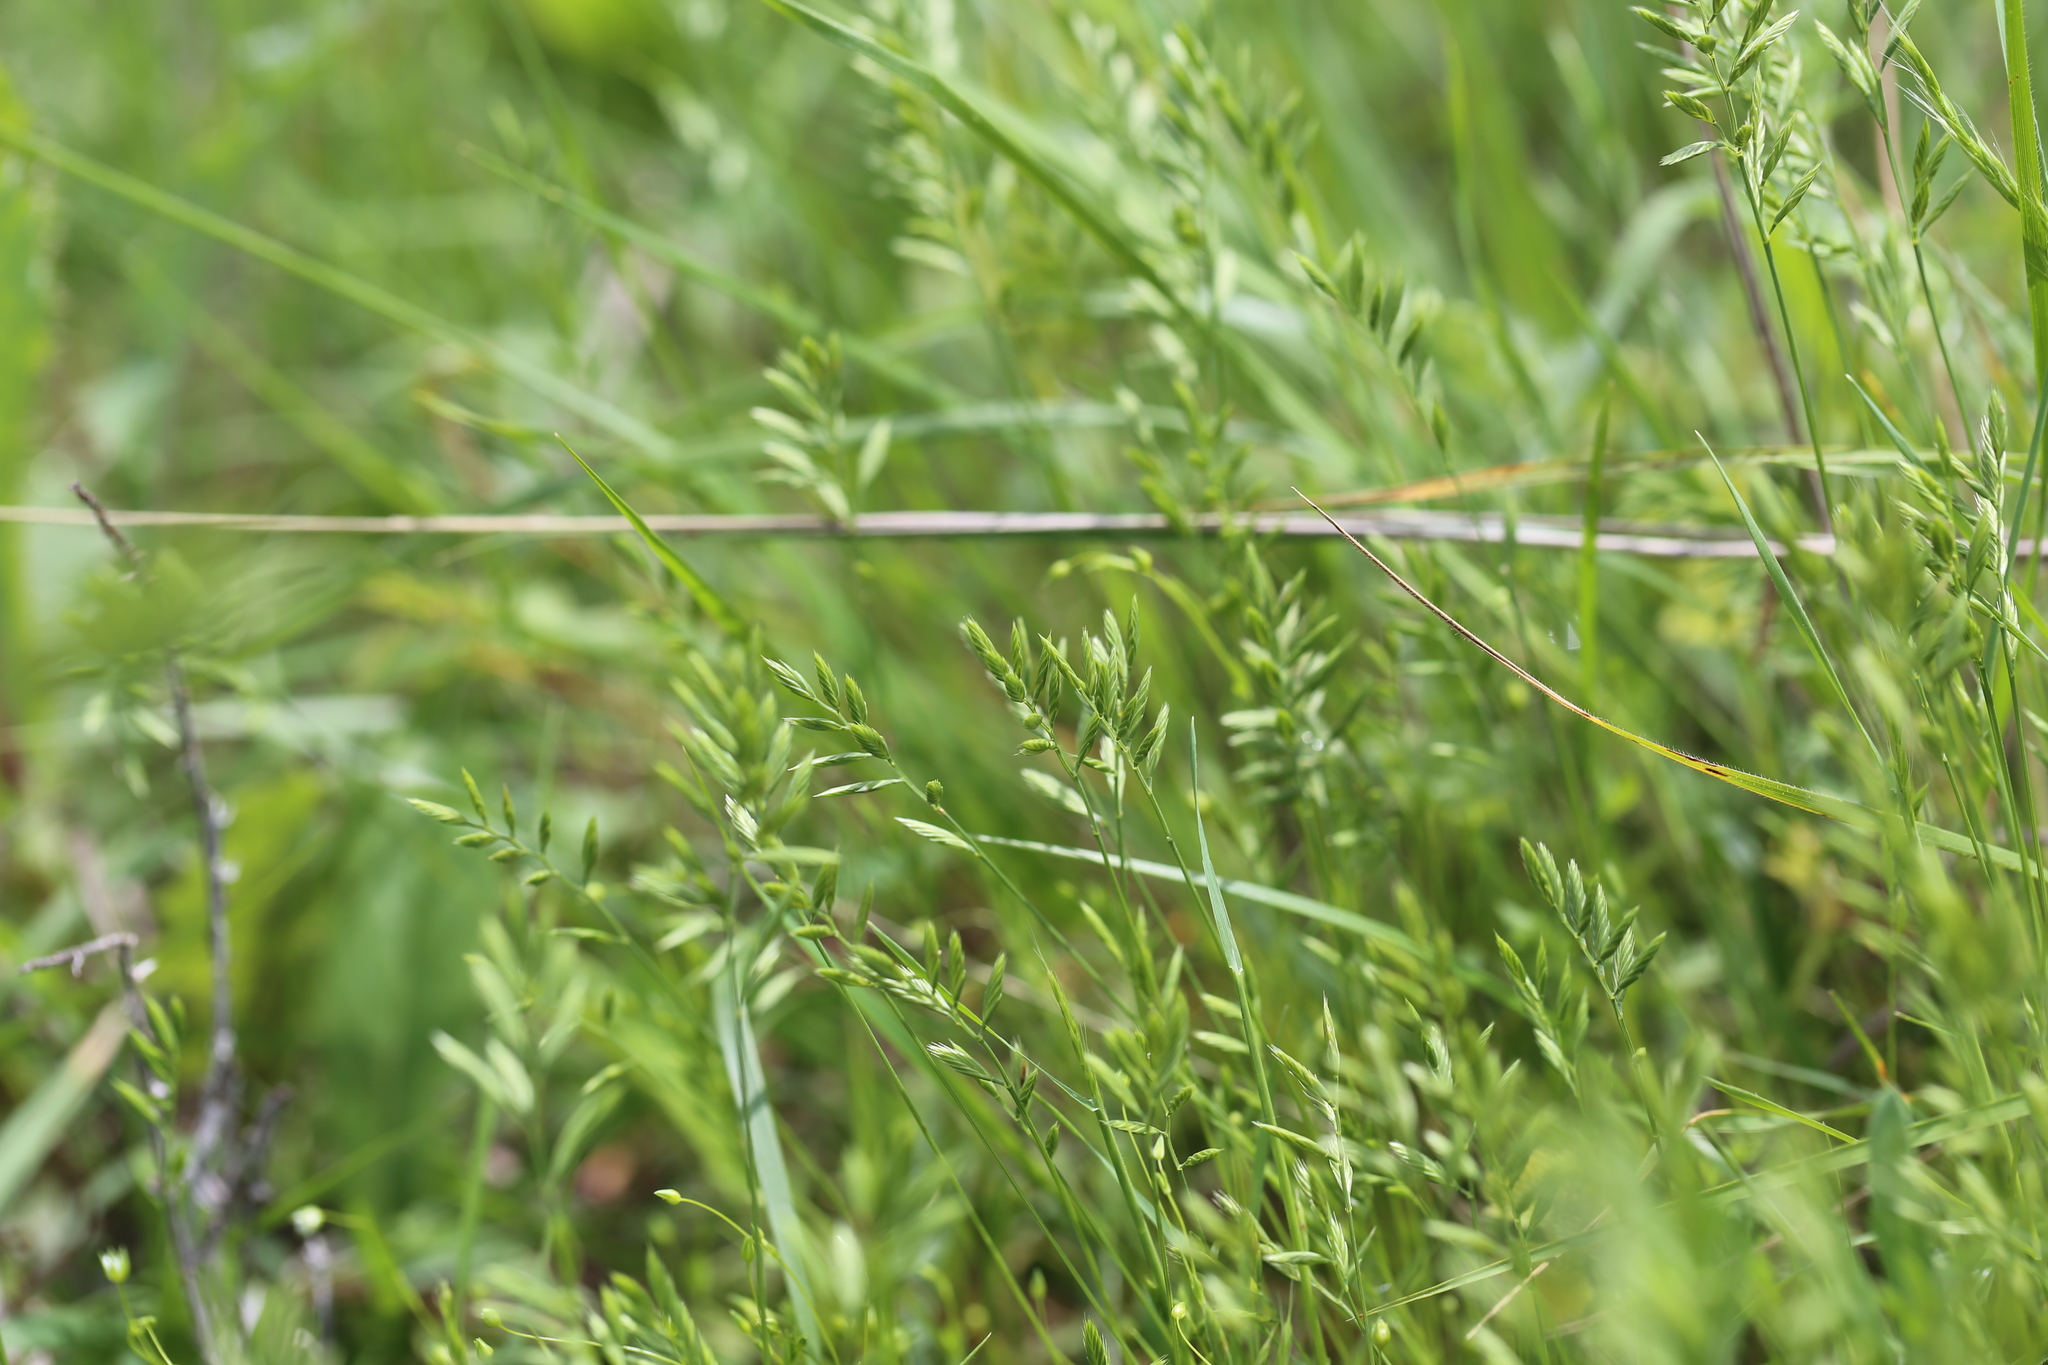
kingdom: Plantae
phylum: Tracheophyta
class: Liliopsida
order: Poales
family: Poaceae
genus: Festuca
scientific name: Festuca octoflora
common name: Sixweeks grass
